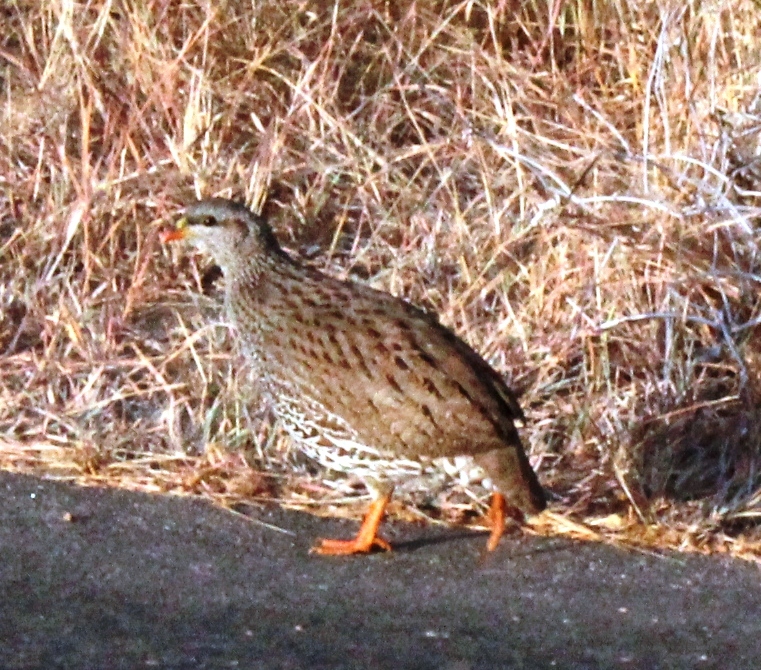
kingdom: Animalia
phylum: Chordata
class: Aves
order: Galliformes
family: Phasianidae
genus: Pternistis
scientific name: Pternistis natalensis
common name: Natal spurfowl
